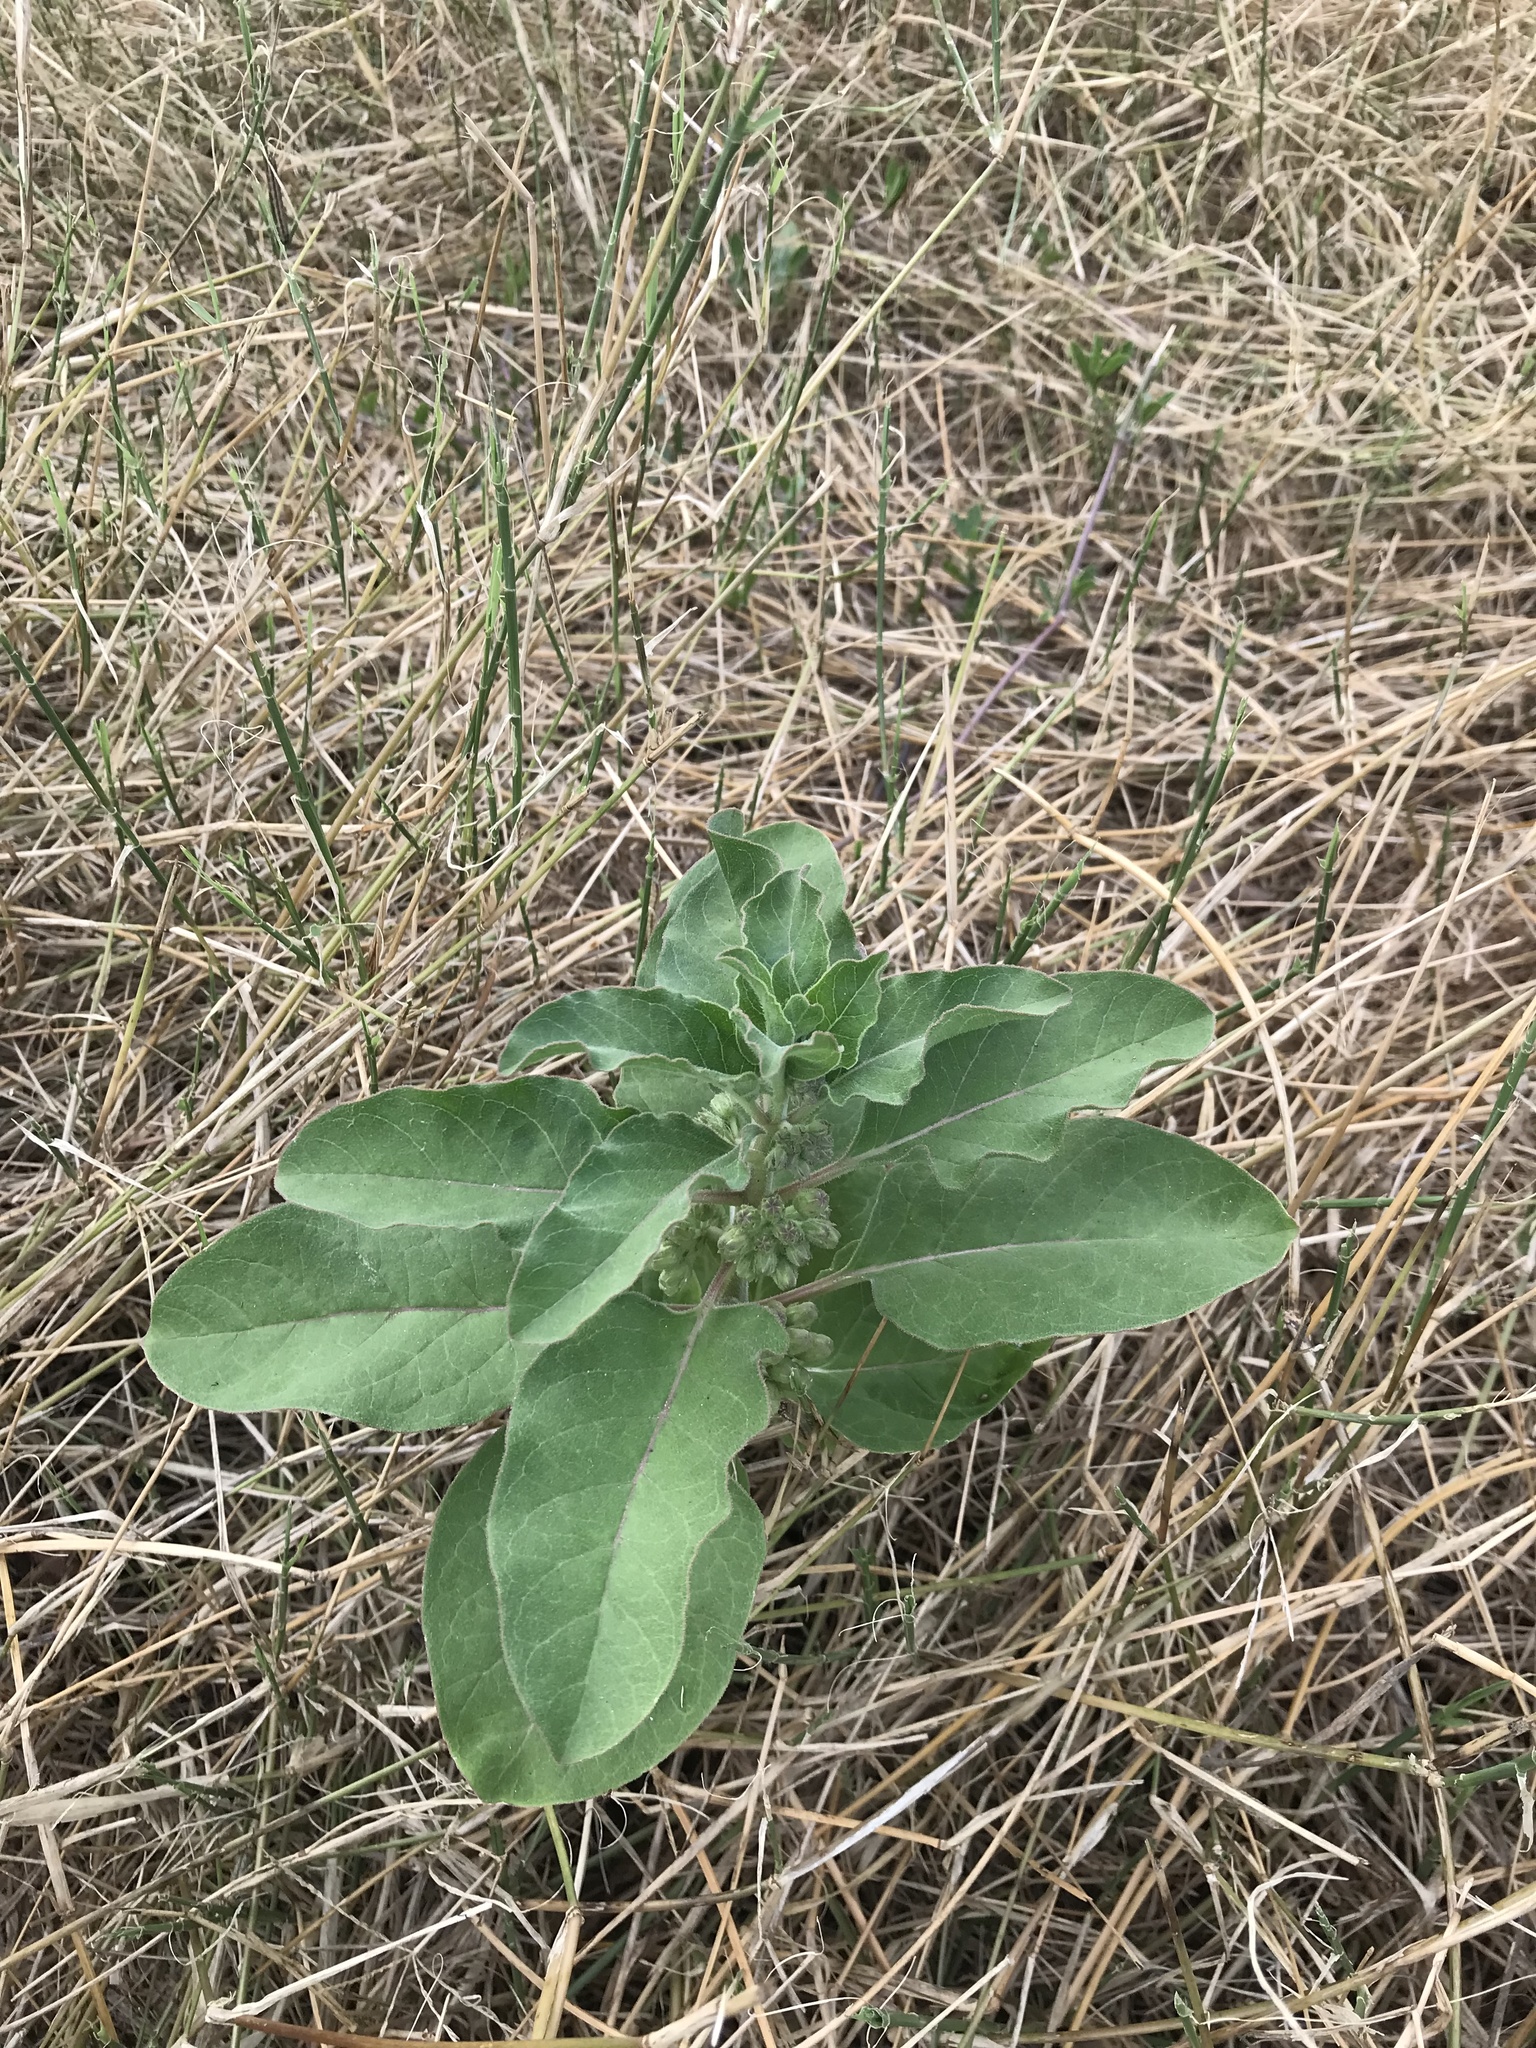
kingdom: Plantae
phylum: Tracheophyta
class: Magnoliopsida
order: Gentianales
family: Apocynaceae
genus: Asclepias
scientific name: Asclepias oenotheroides
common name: Zizotes milkweed
